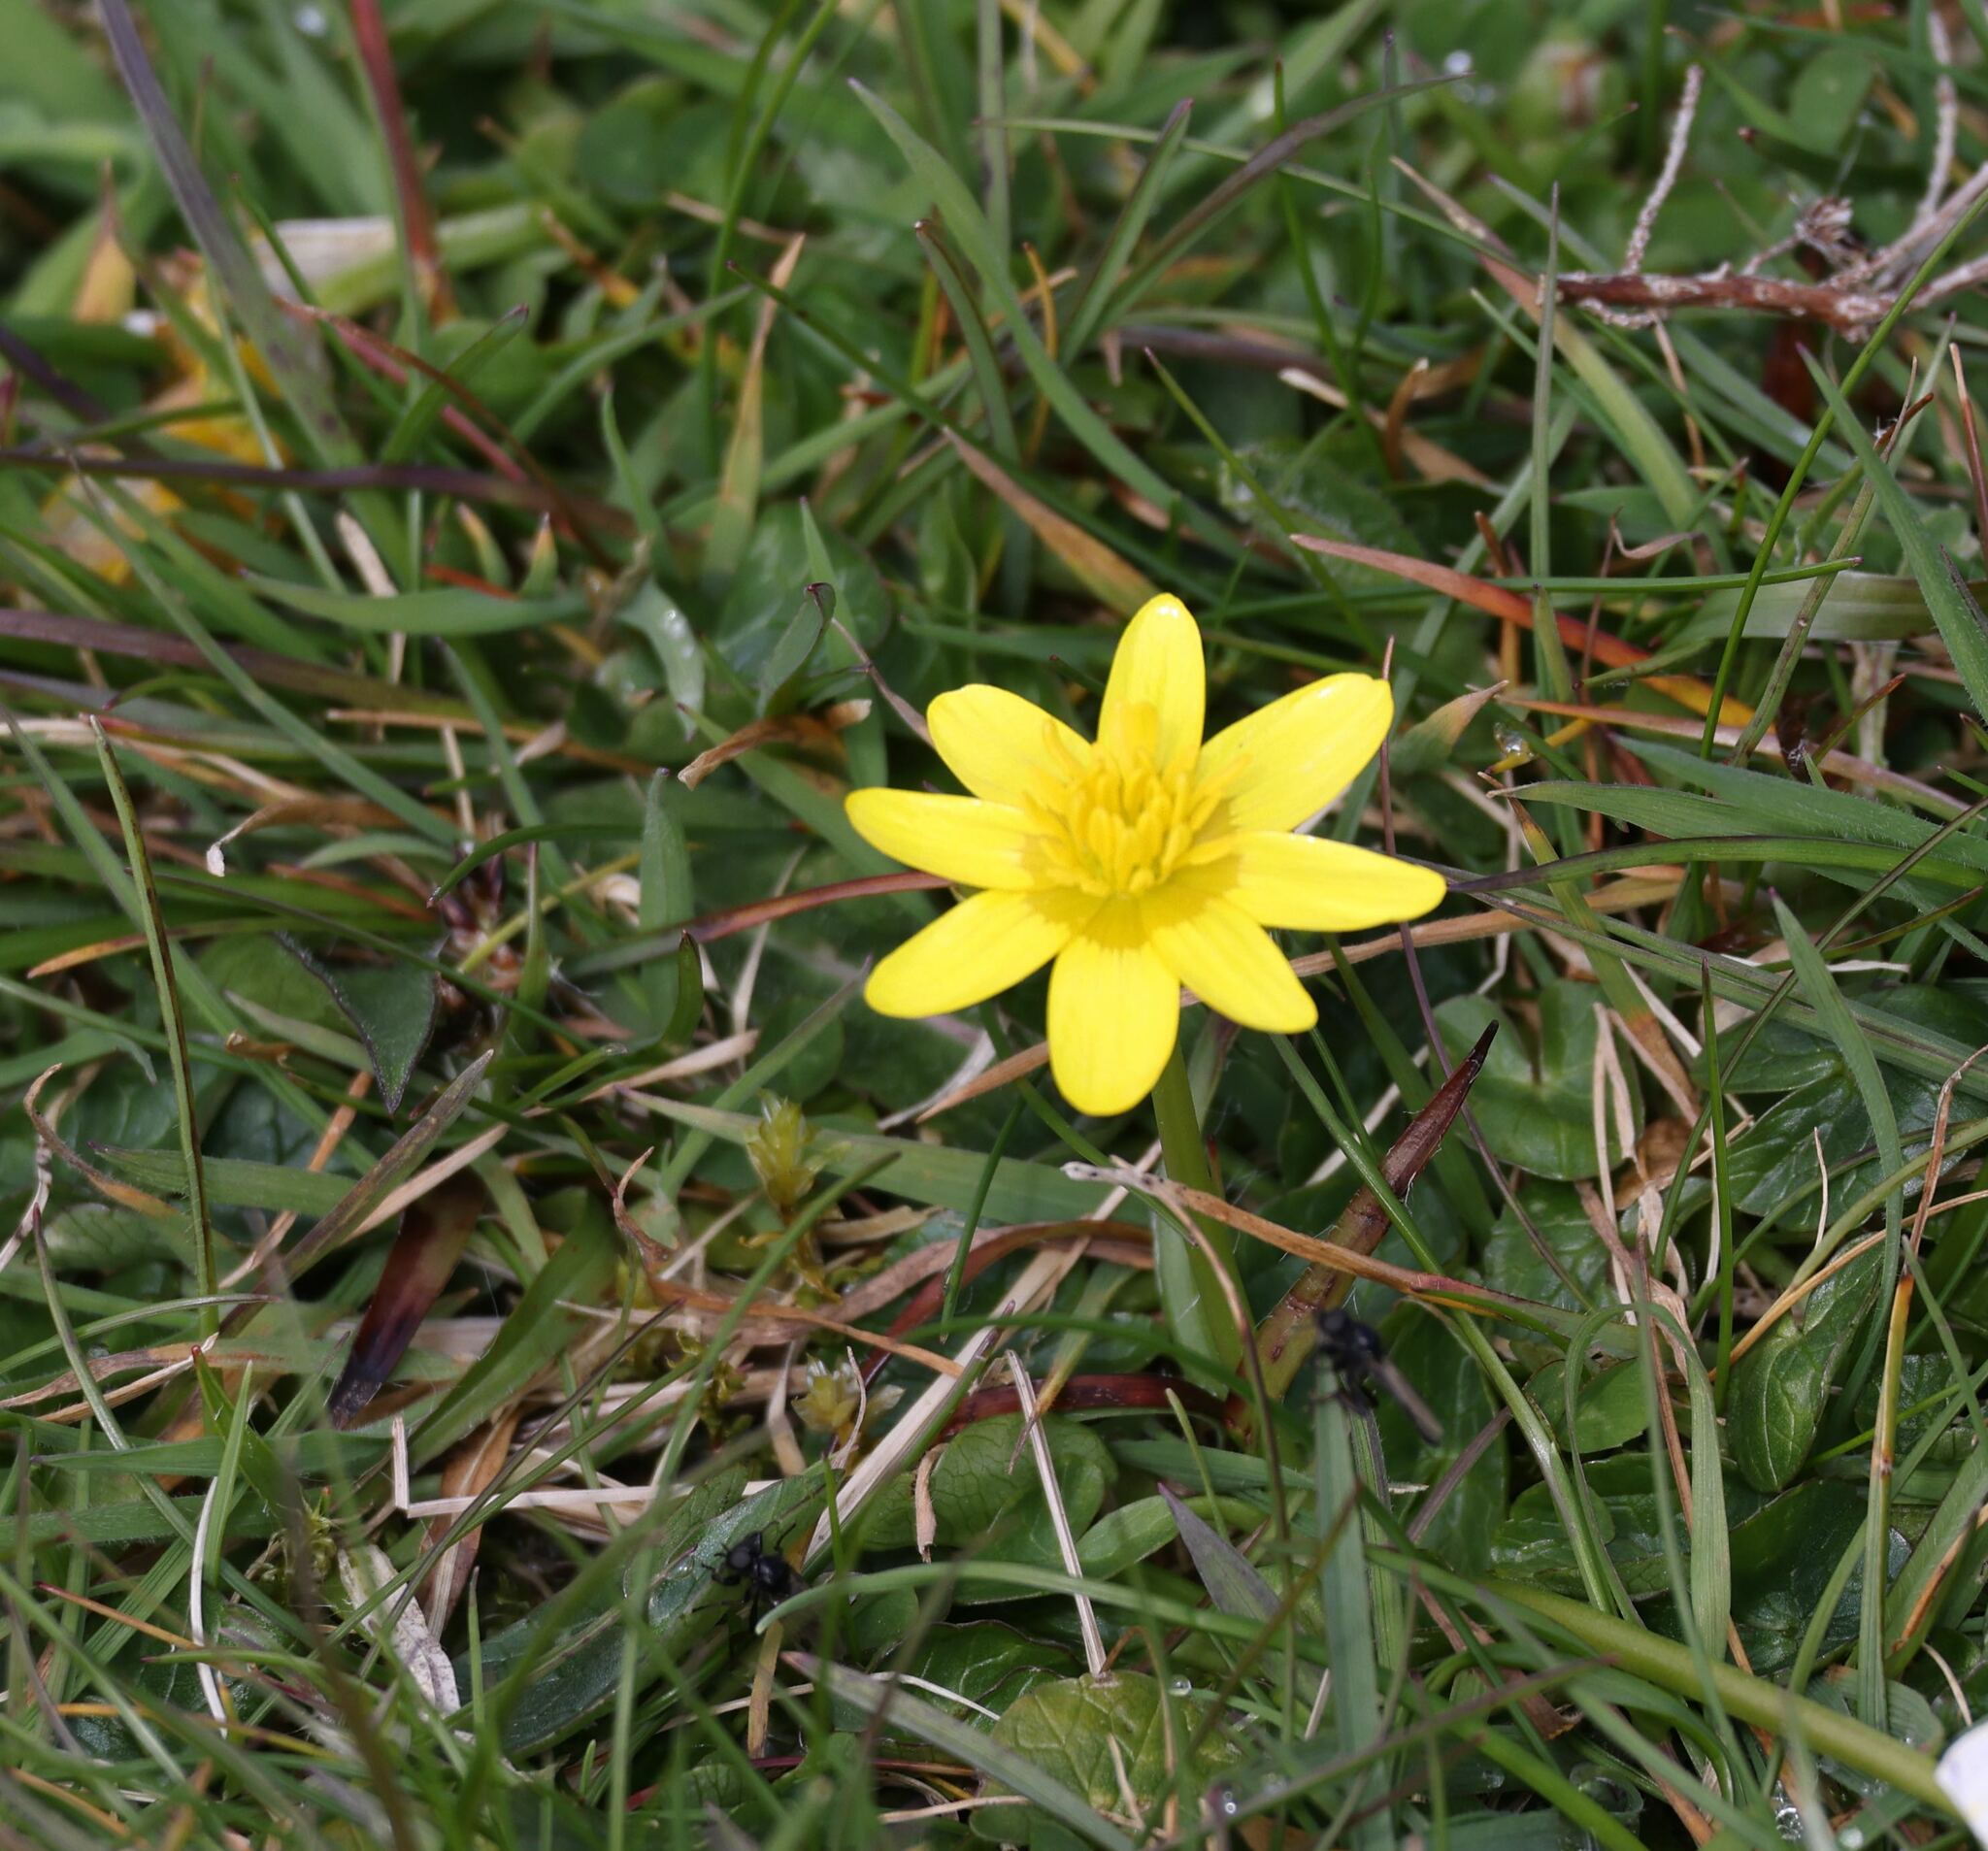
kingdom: Plantae
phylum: Tracheophyta
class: Magnoliopsida
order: Ranunculales
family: Ranunculaceae
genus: Ficaria
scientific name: Ficaria verna
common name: Lesser celandine
